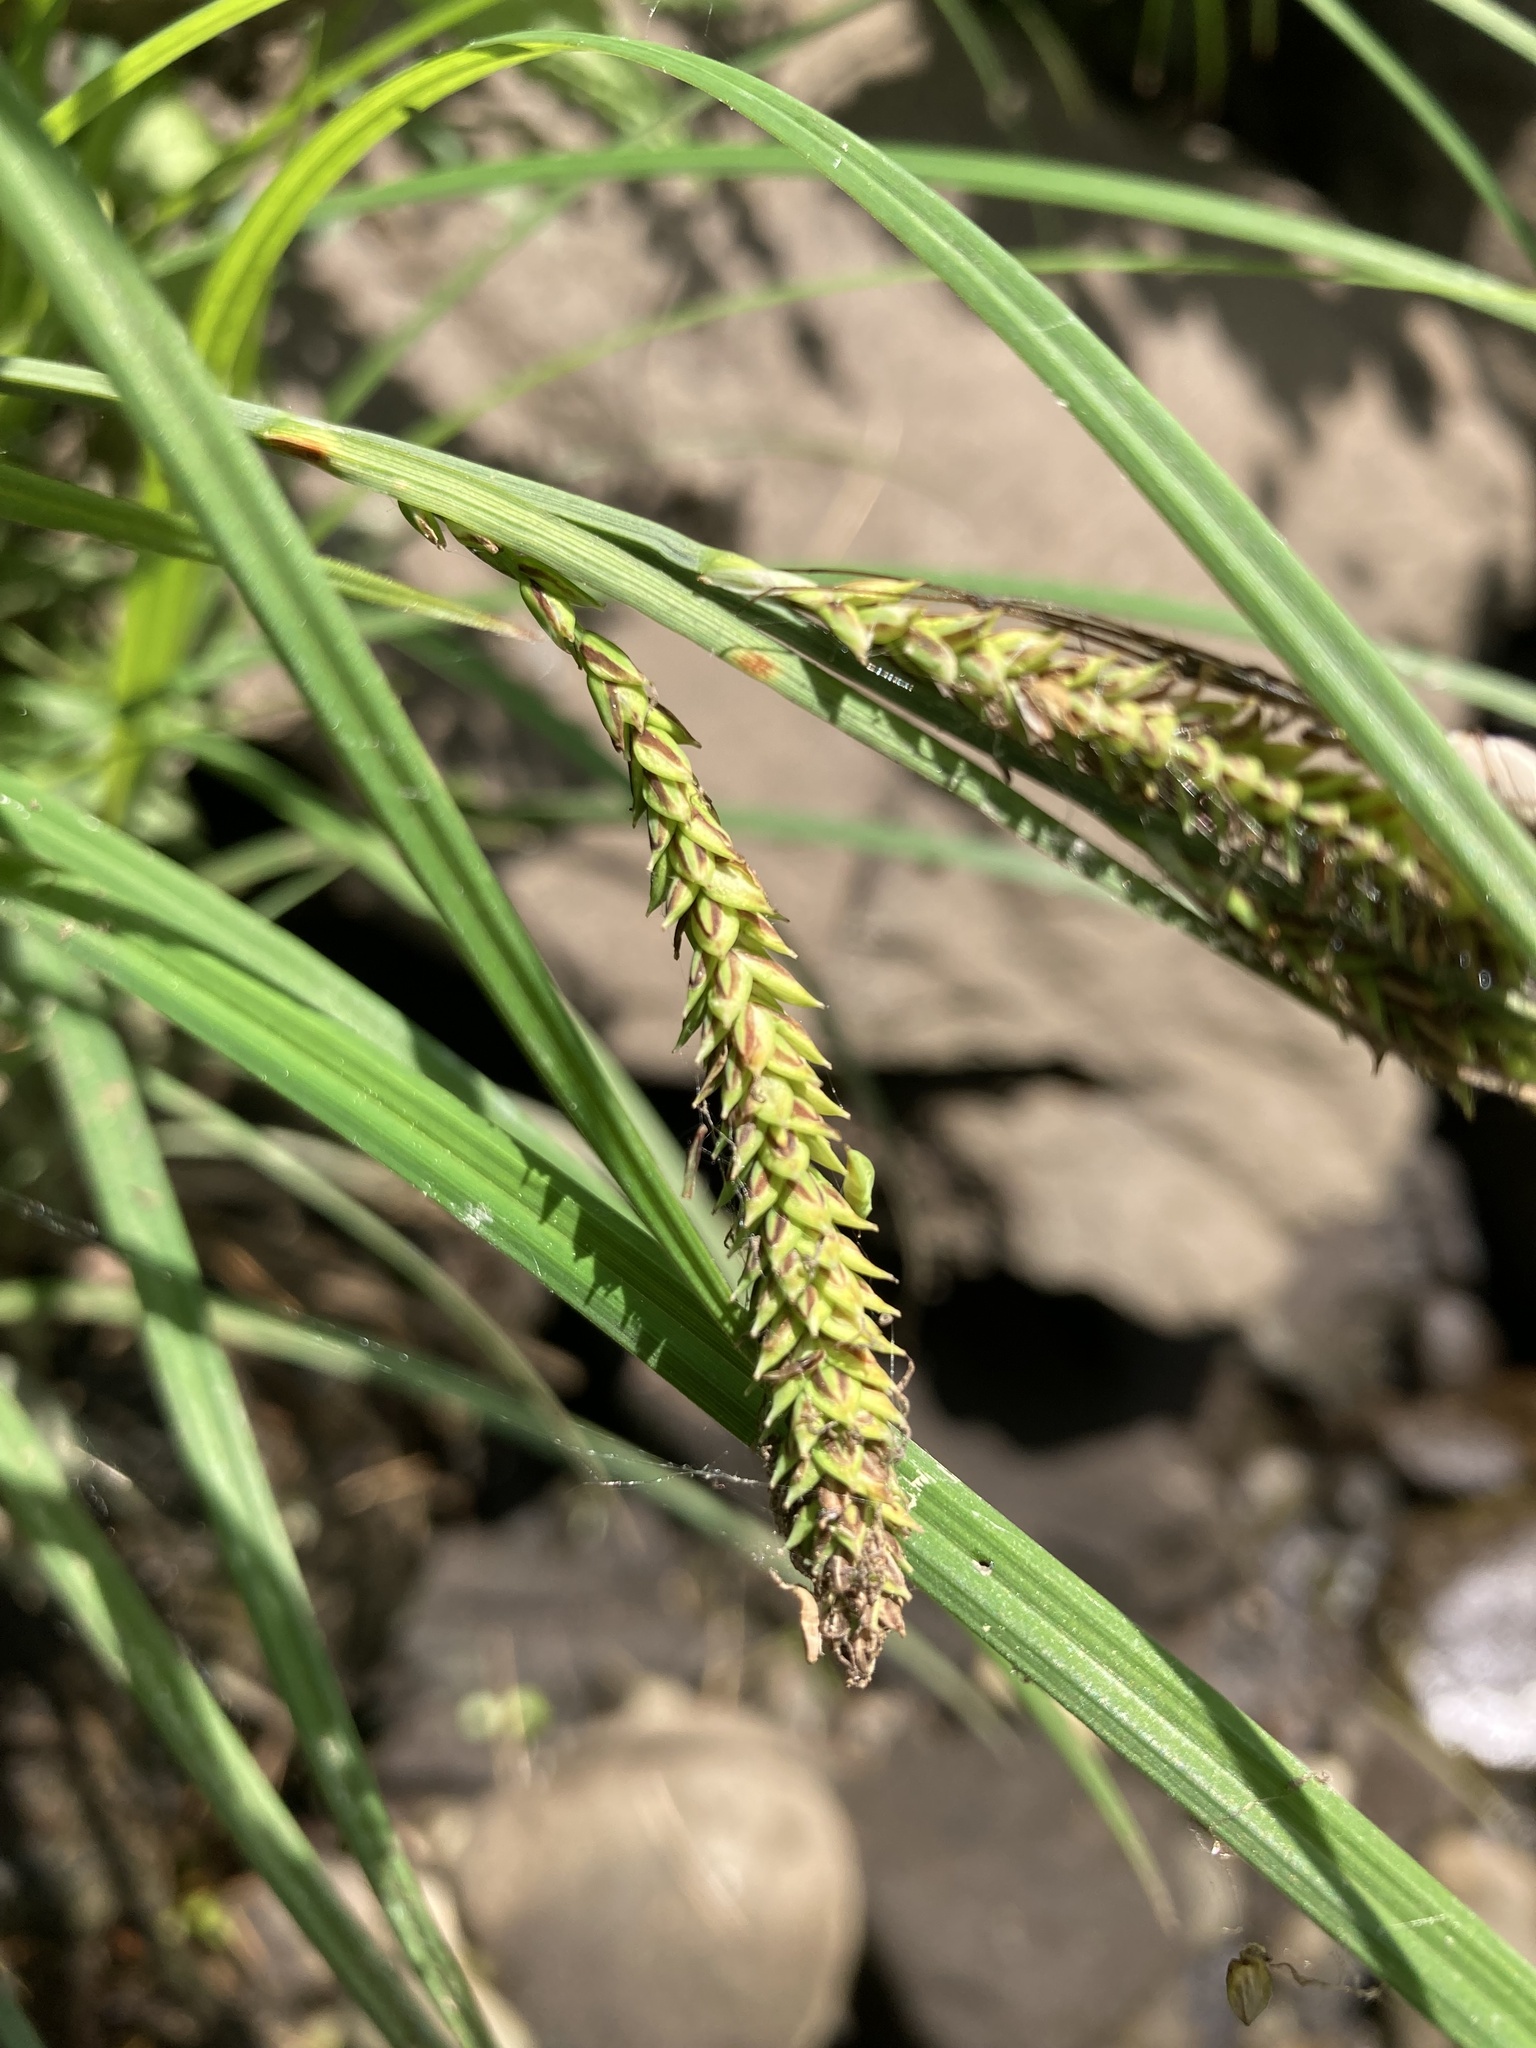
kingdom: Plantae
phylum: Tracheophyta
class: Liliopsida
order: Poales
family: Cyperaceae
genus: Carex
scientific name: Carex torta
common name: Twisted sedge
